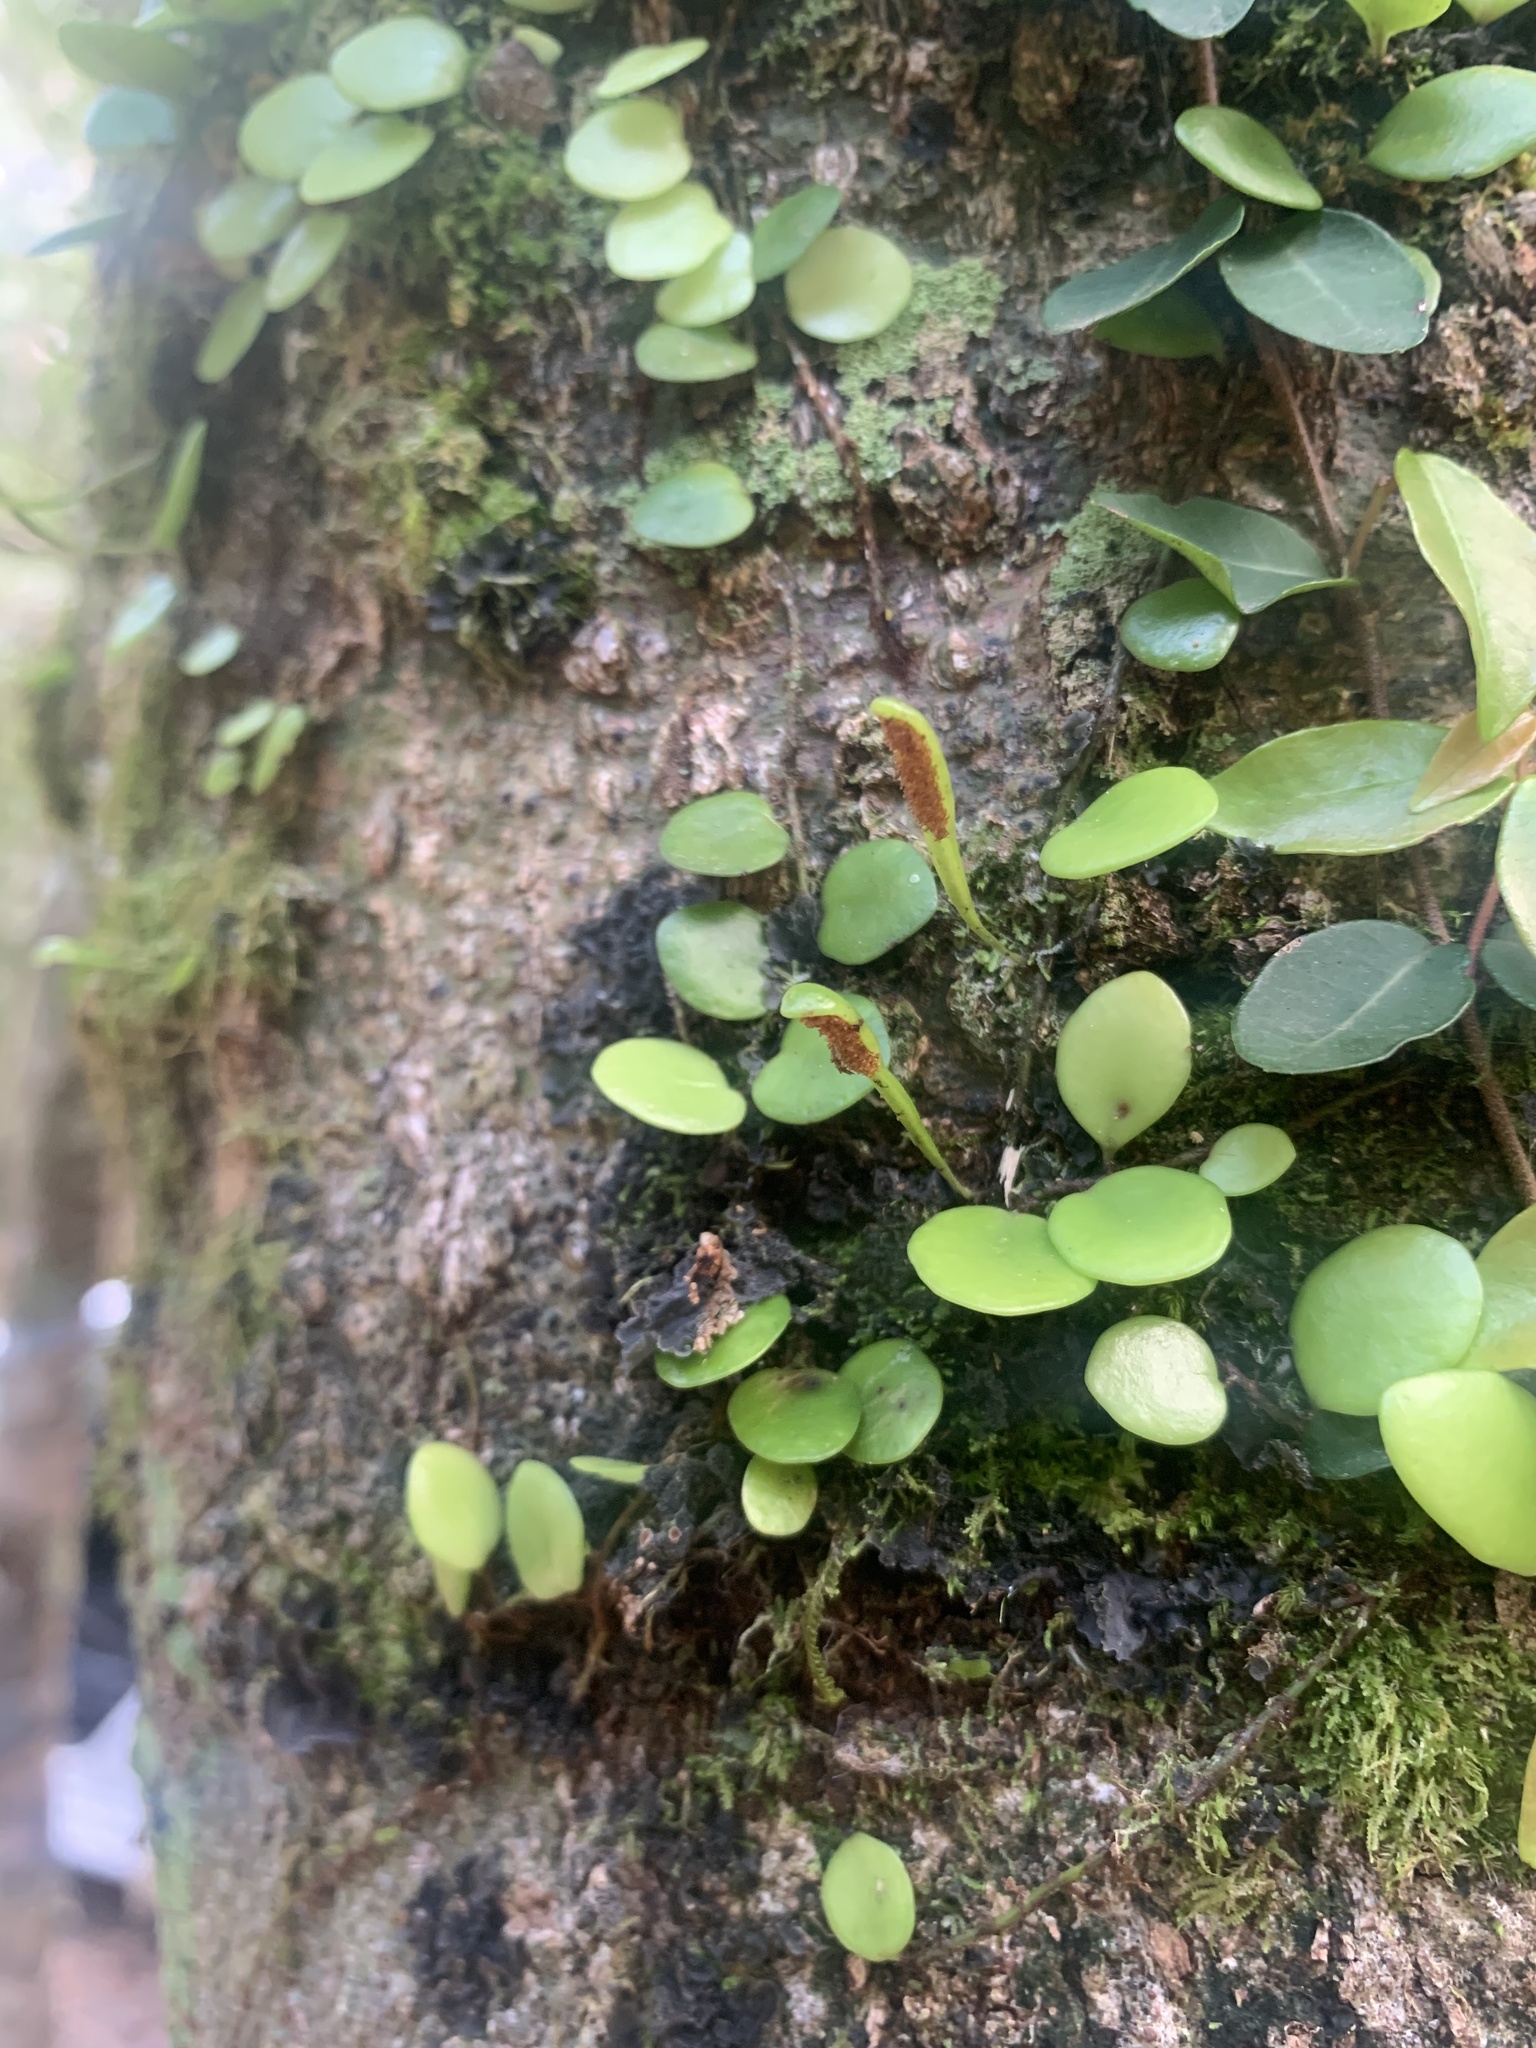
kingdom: Plantae
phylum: Tracheophyta
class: Polypodiopsida
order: Polypodiales
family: Polypodiaceae
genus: Lepisorus
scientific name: Lepisorus microphyllus
